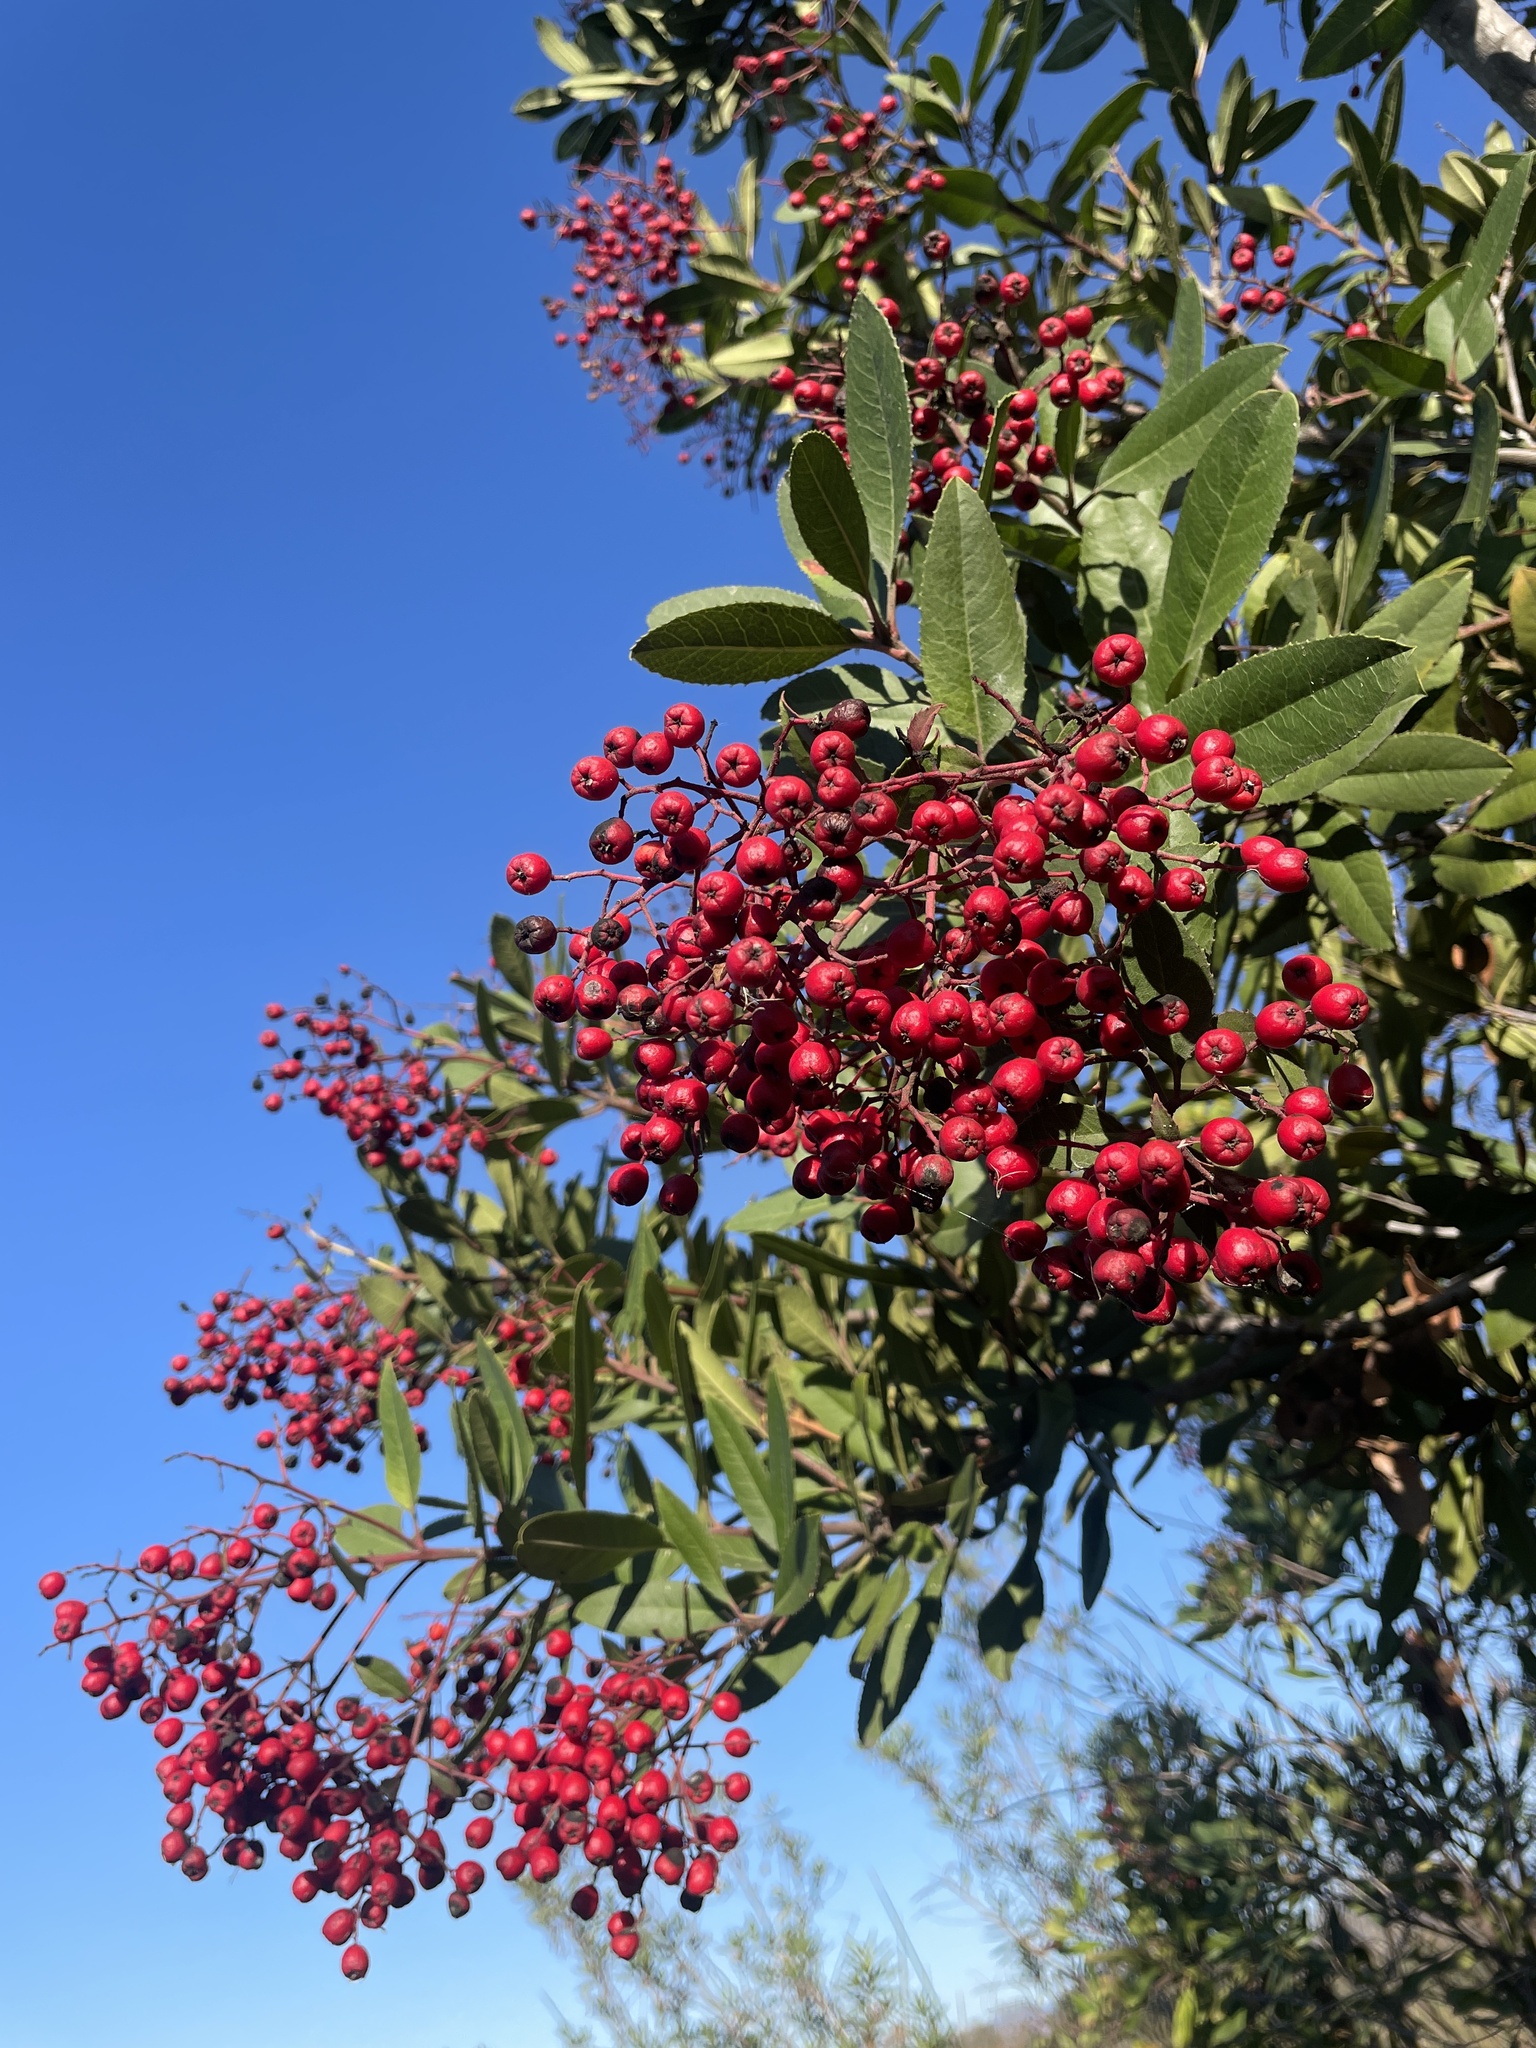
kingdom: Plantae
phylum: Tracheophyta
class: Magnoliopsida
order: Rosales
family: Rosaceae
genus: Heteromeles
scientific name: Heteromeles arbutifolia
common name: California-holly
